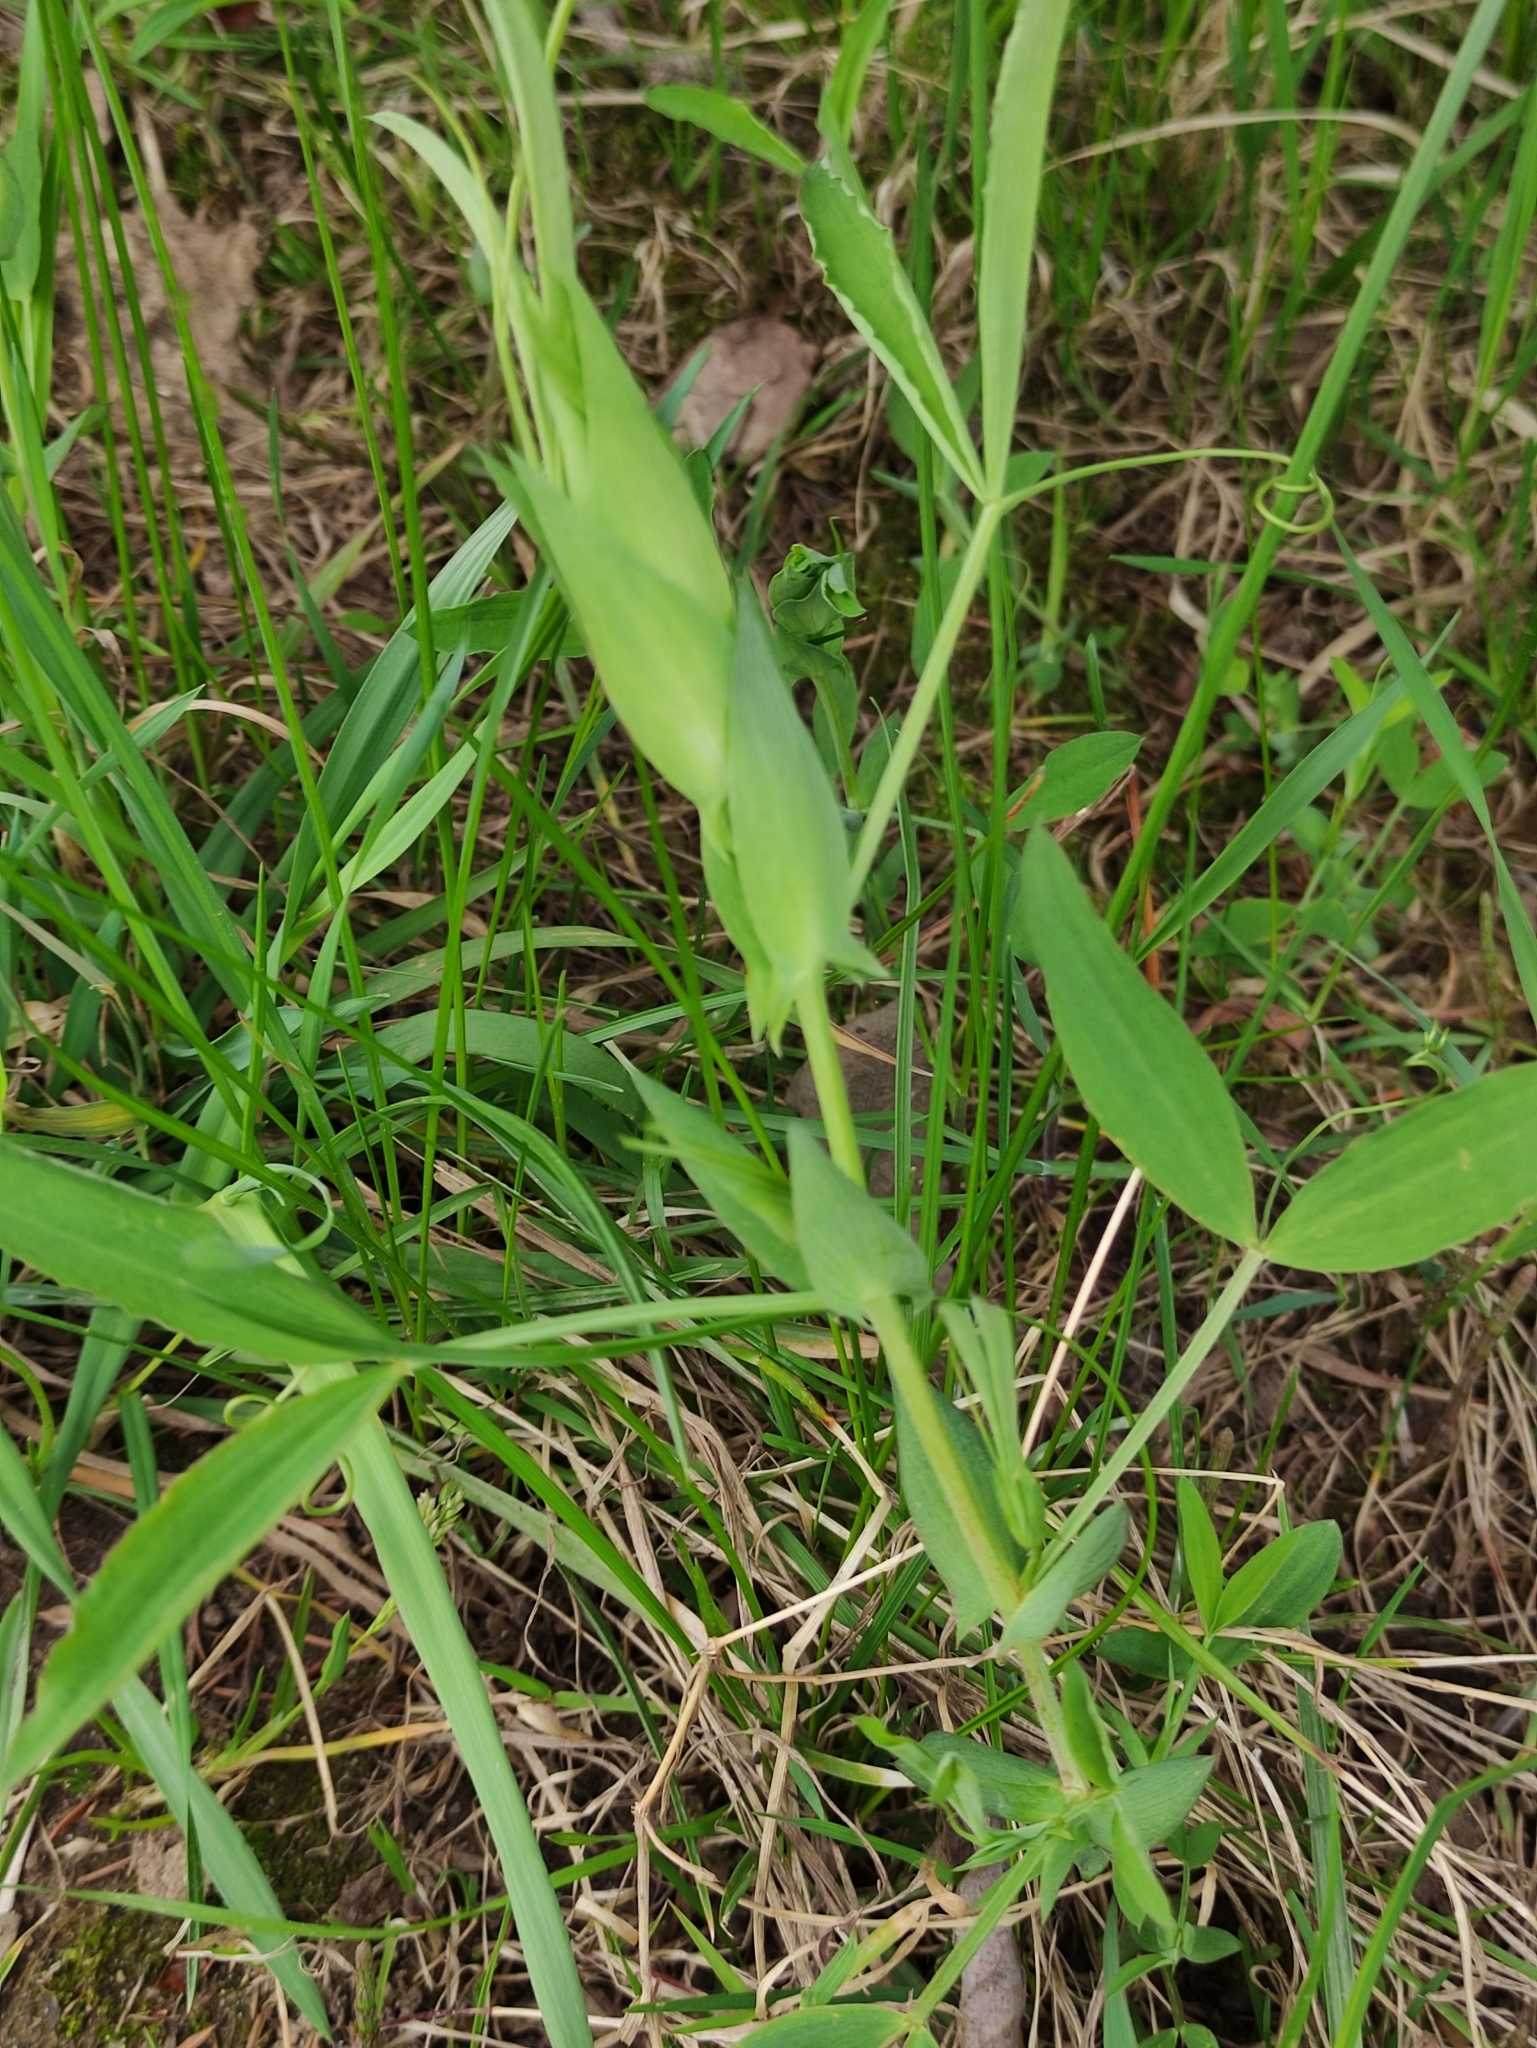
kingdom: Plantae
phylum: Tracheophyta
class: Magnoliopsida
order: Fabales
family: Fabaceae
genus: Lathyrus
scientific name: Lathyrus pratensis
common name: Meadow vetchling
